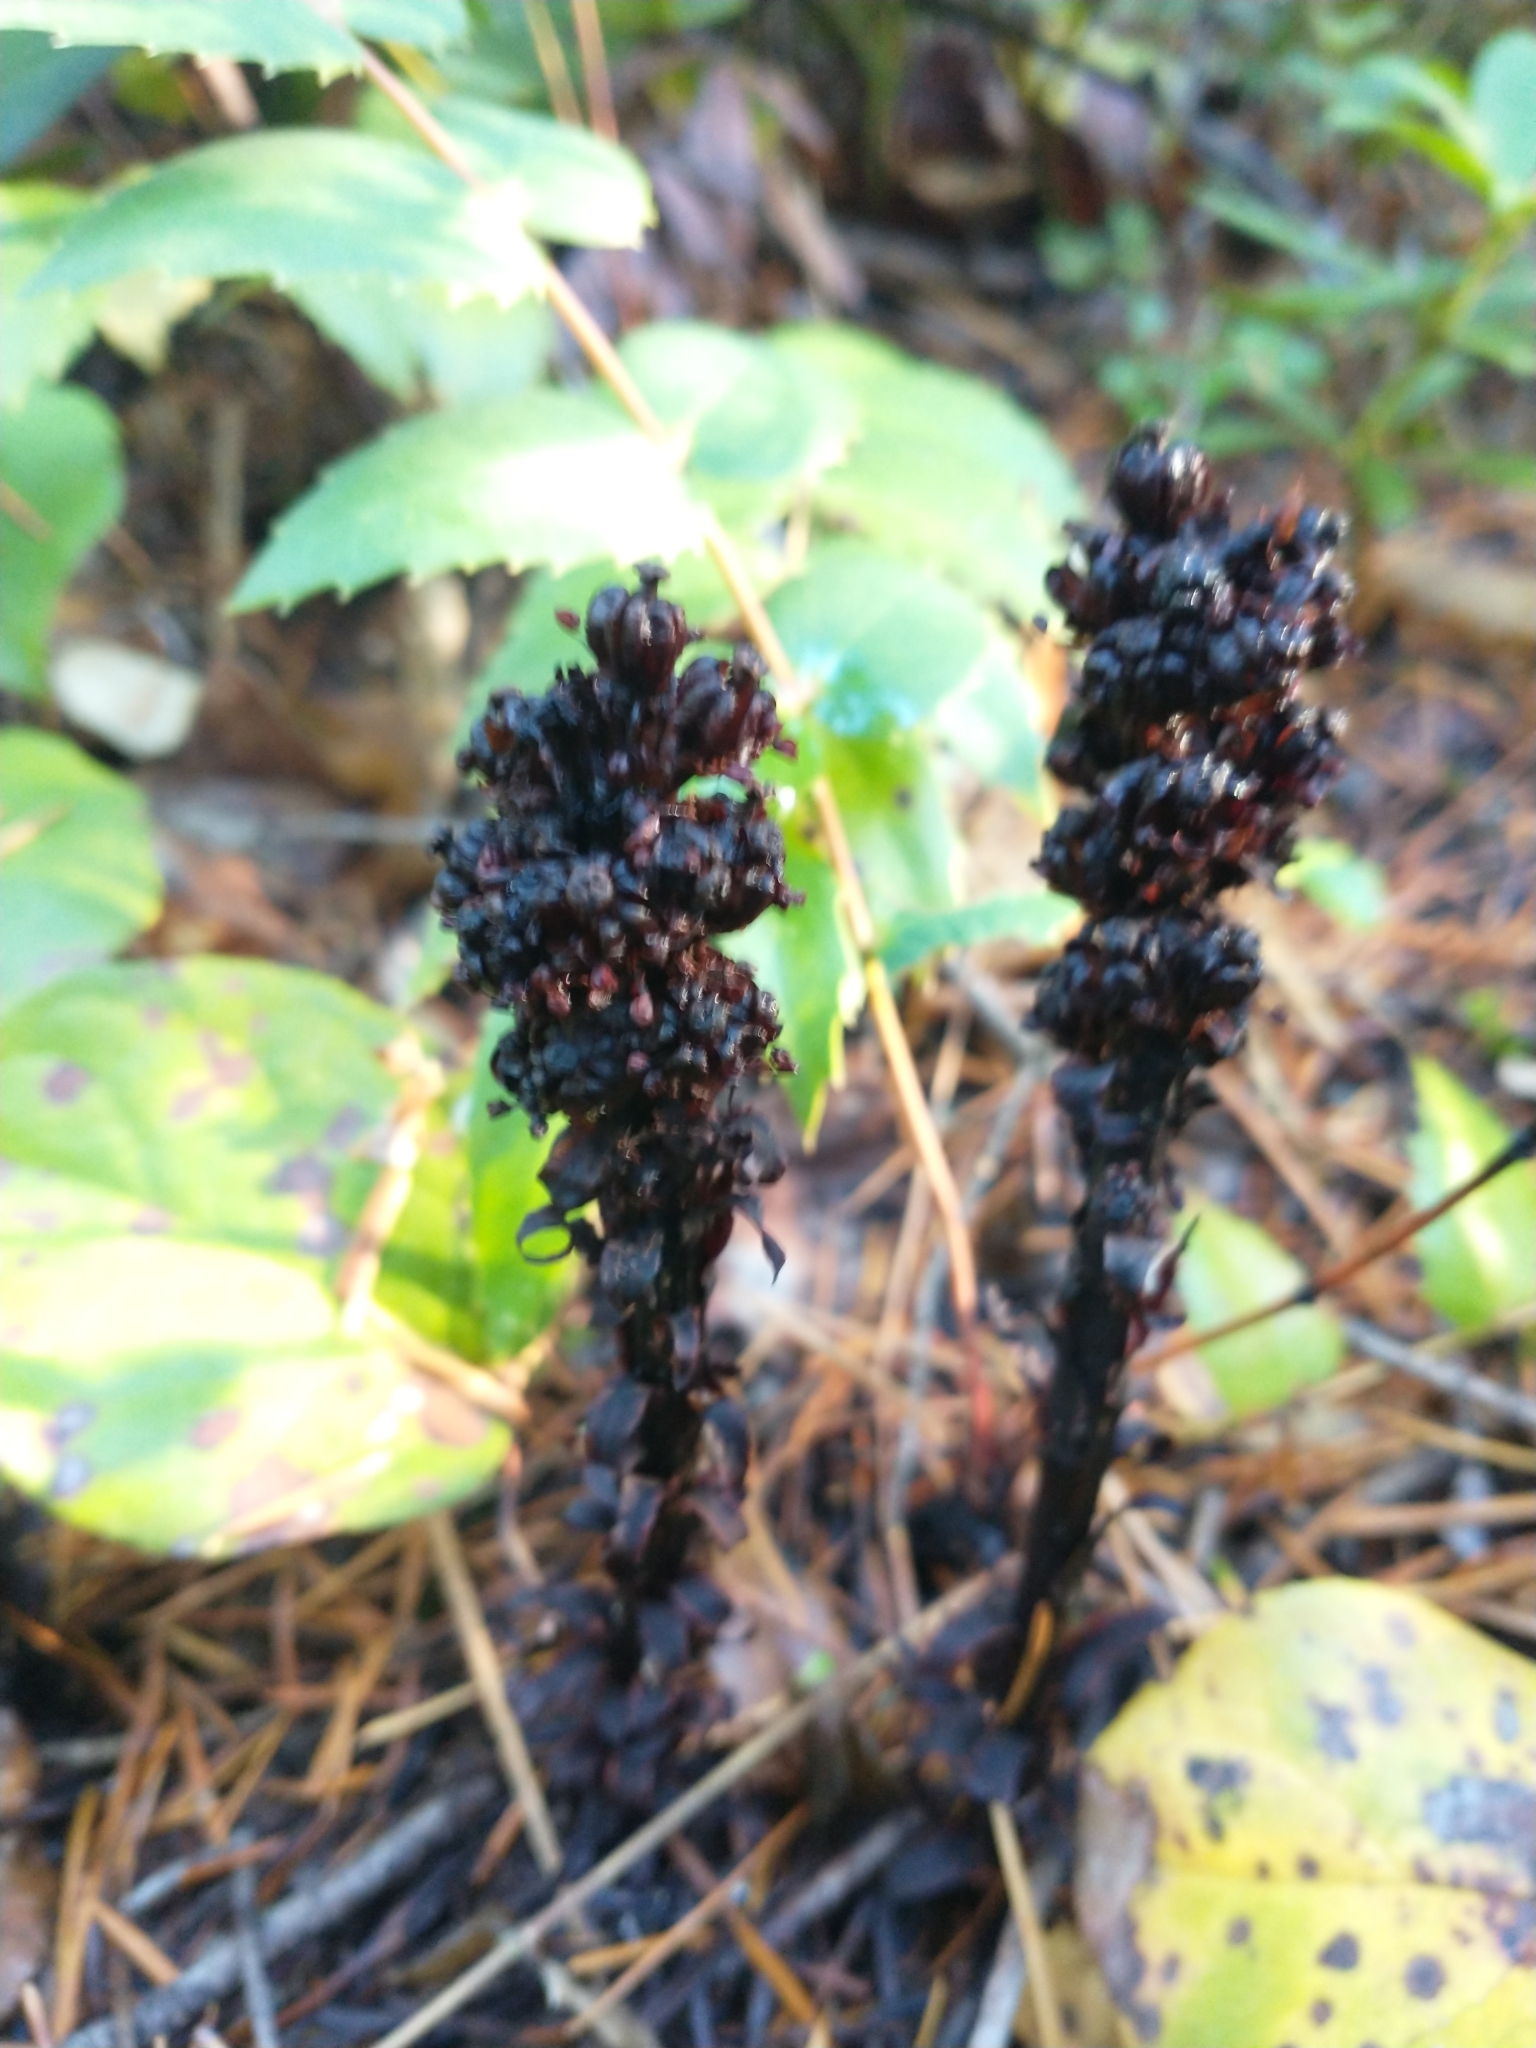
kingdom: Plantae
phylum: Tracheophyta
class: Magnoliopsida
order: Ericales
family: Ericaceae
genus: Allotropa
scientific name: Allotropa virgata
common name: Candy-striped allotropa
